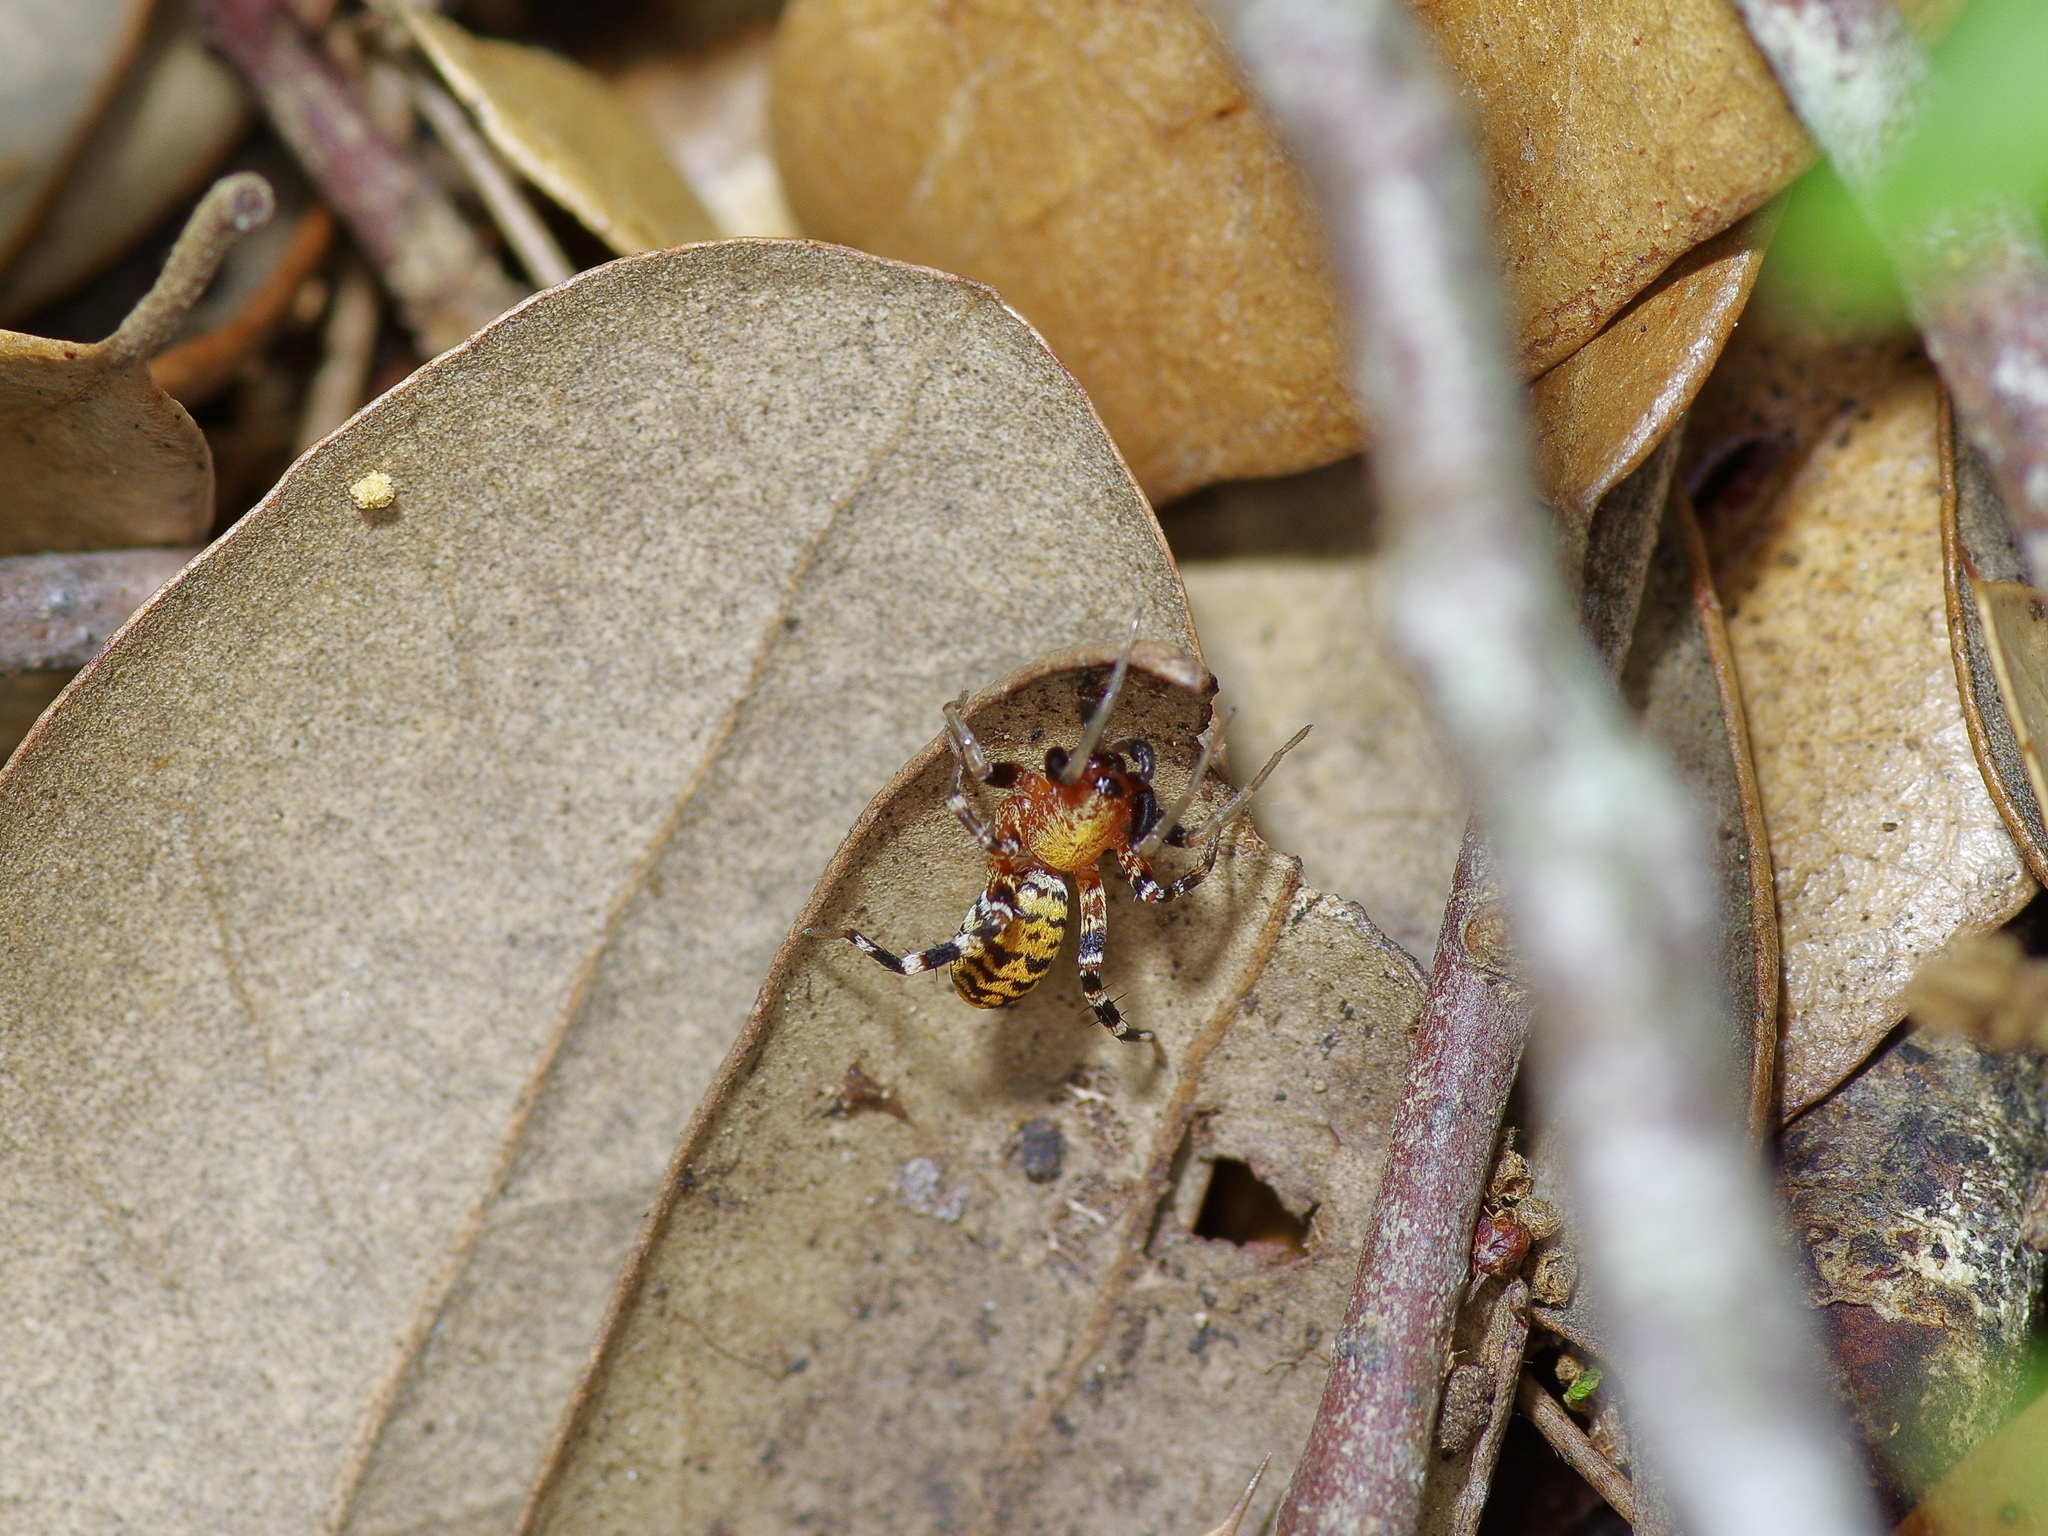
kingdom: Animalia
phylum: Arthropoda
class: Arachnida
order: Araneae
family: Corinnidae
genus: Castianeira
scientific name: Castianeira amoena
